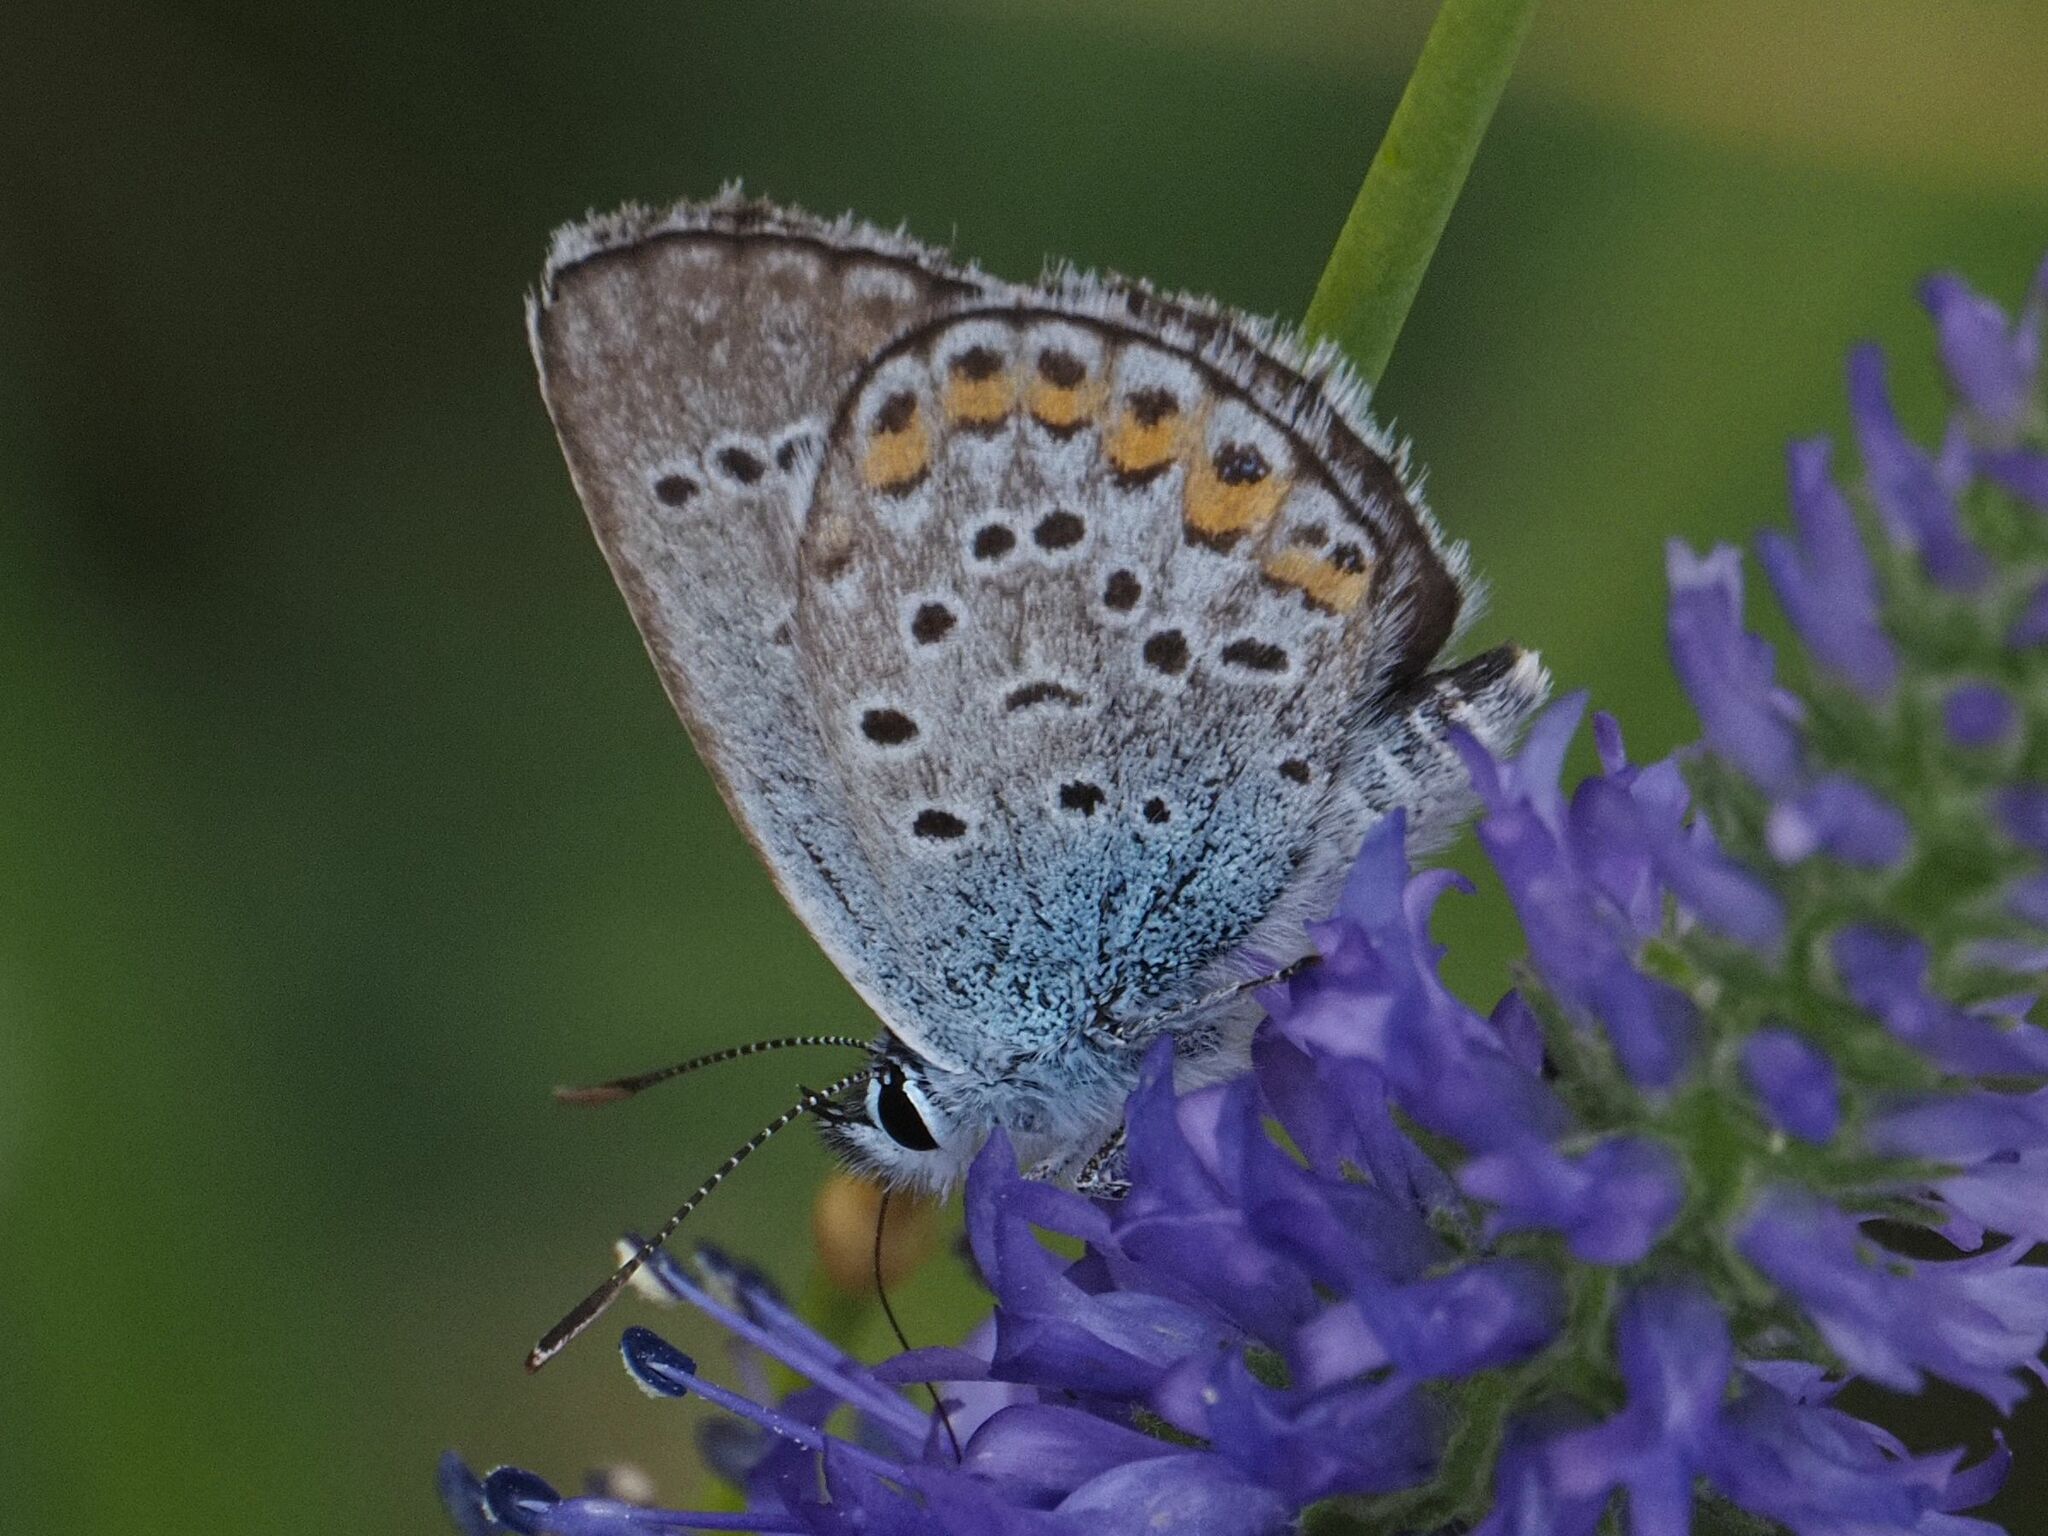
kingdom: Animalia
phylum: Arthropoda
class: Insecta
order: Lepidoptera
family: Lycaenidae
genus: Plebejus
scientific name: Plebejus argus
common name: Silver-studded blue
